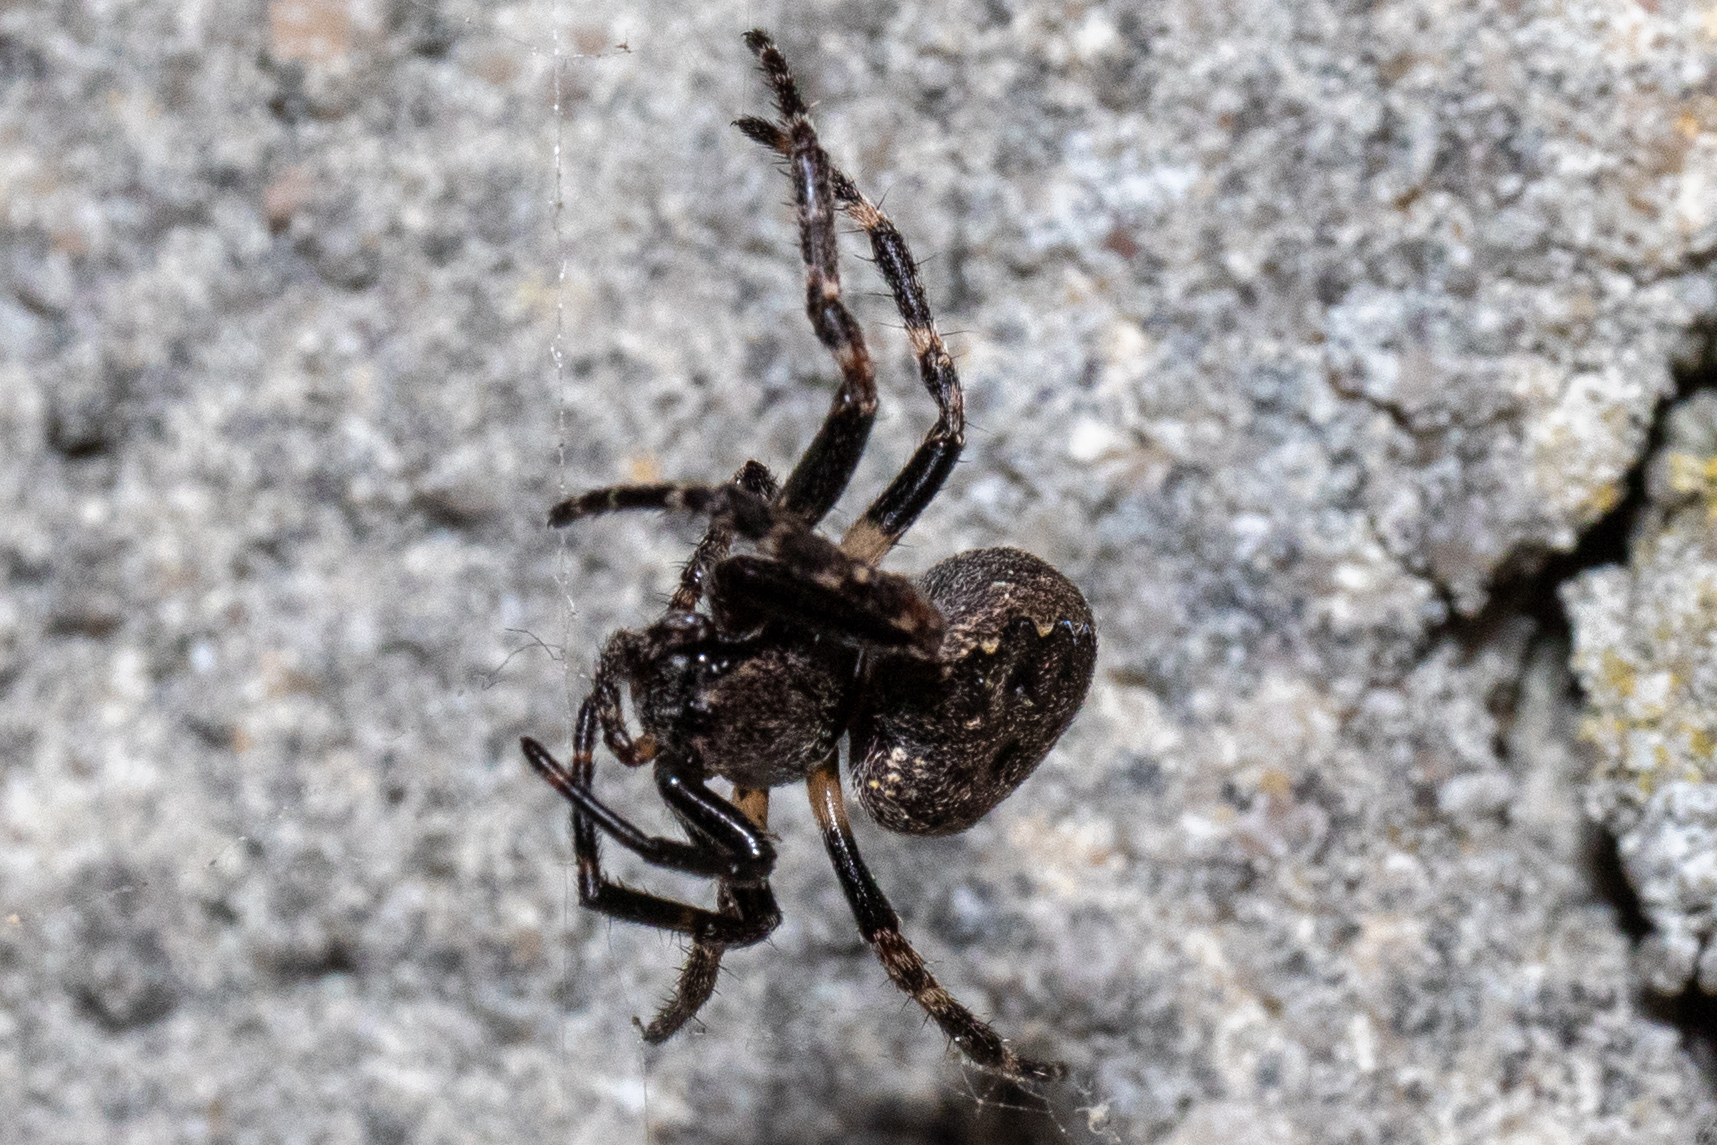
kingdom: Animalia
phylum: Arthropoda
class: Arachnida
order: Araneae
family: Araneidae
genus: Nuctenea
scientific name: Nuctenea umbratica
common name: Toad spider
